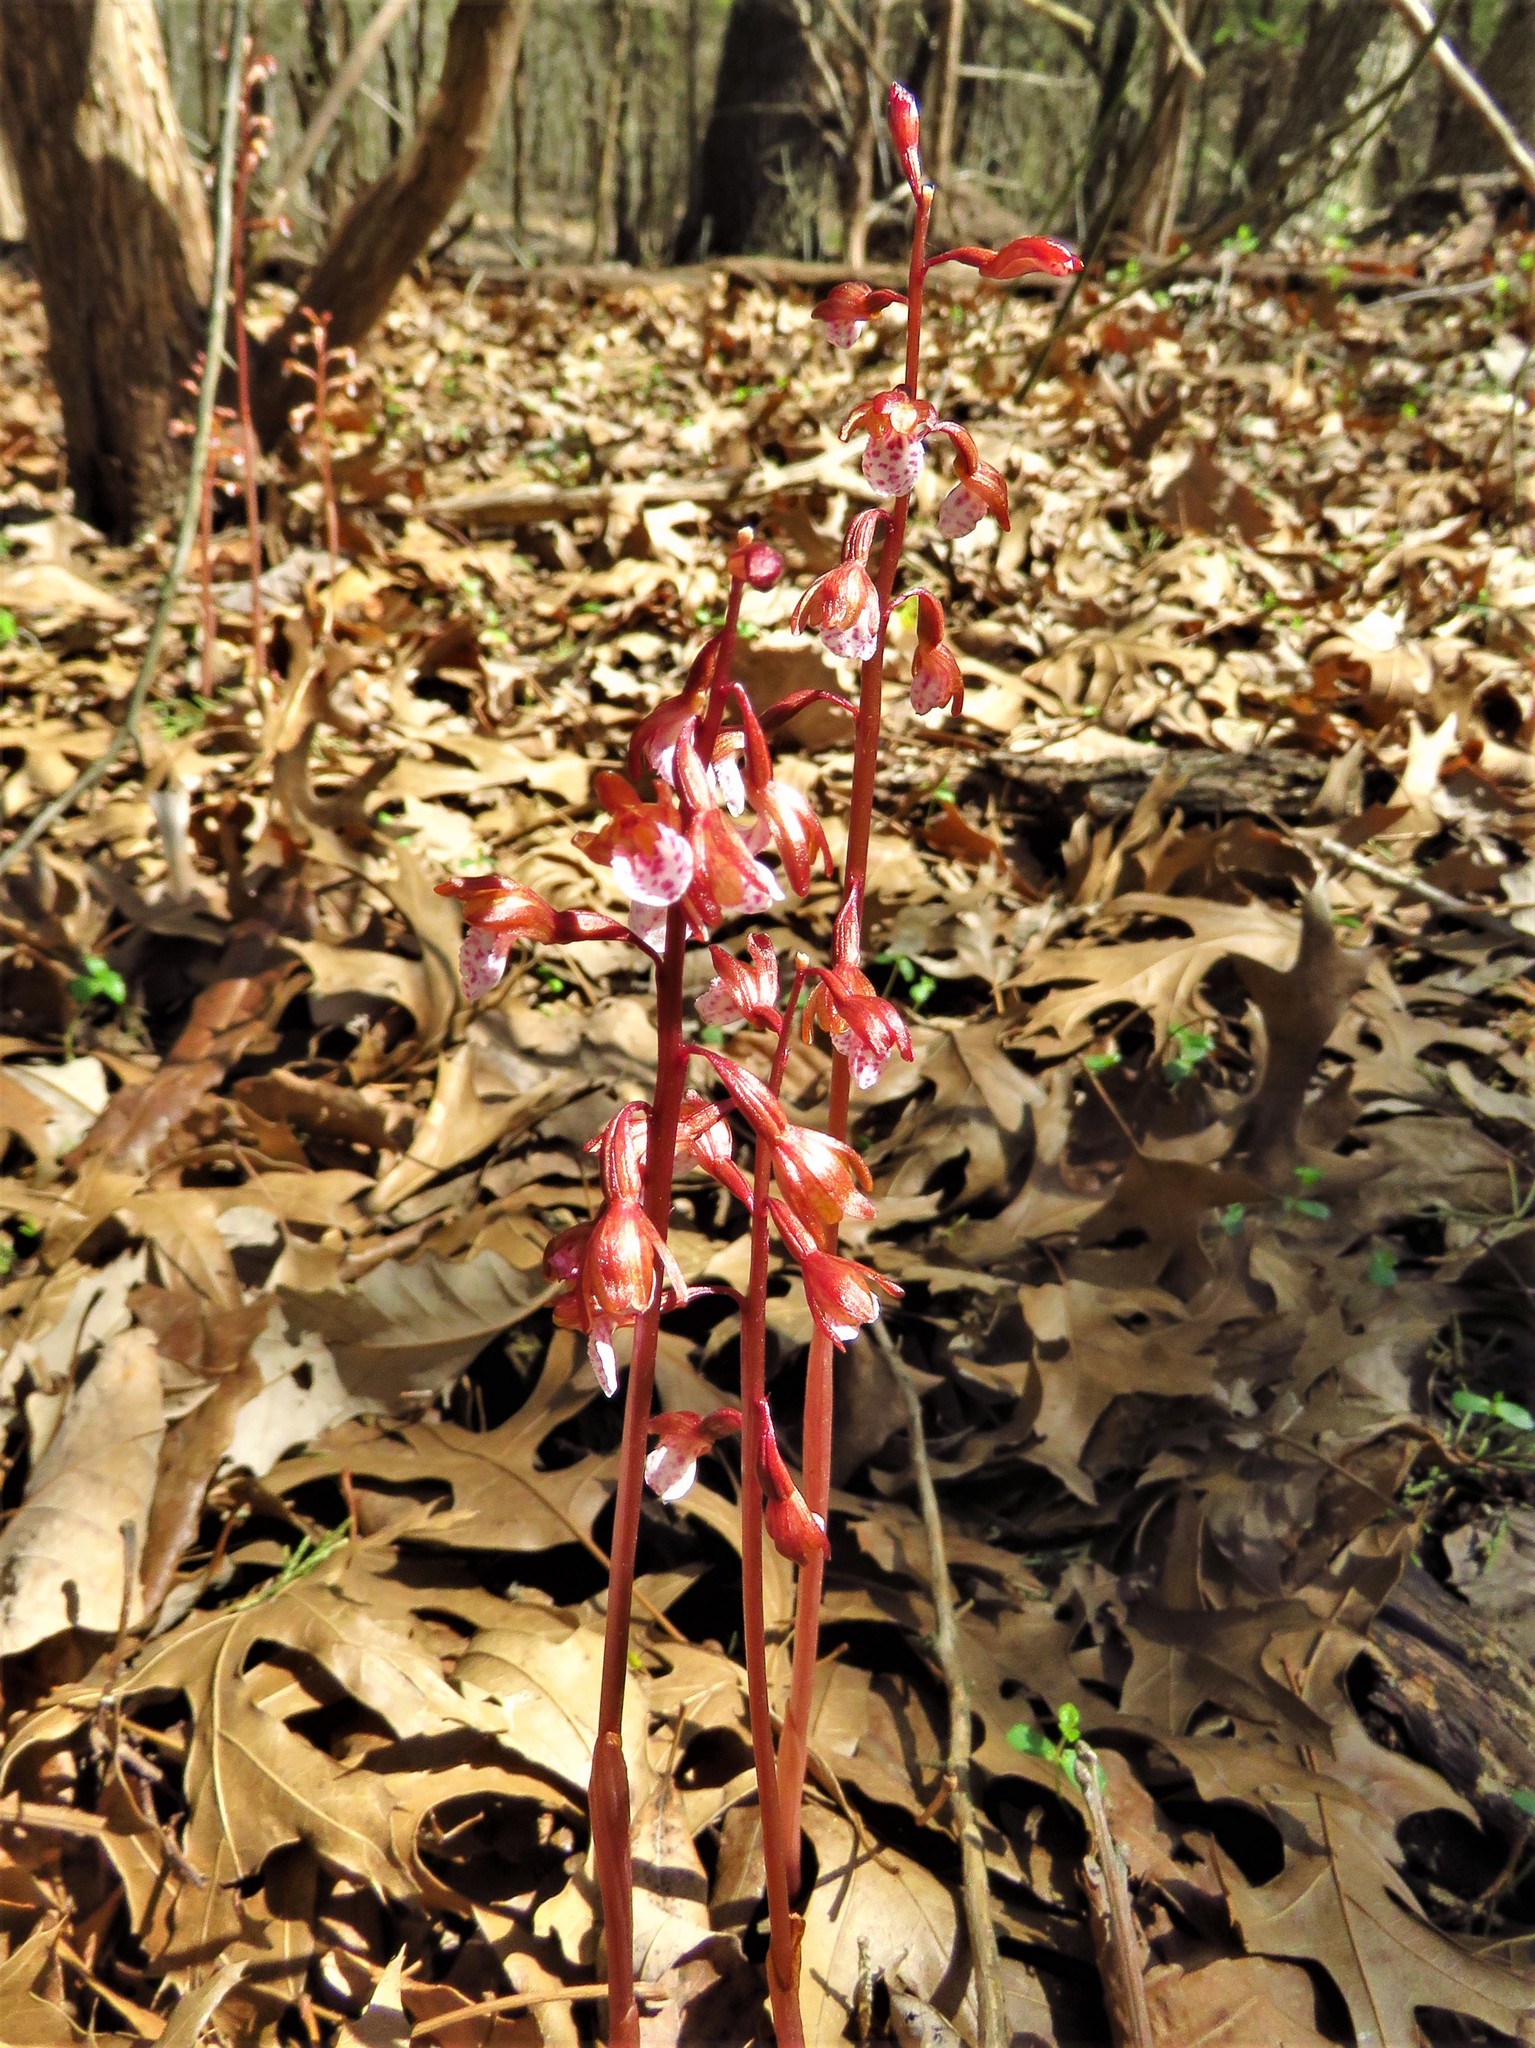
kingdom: Plantae
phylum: Tracheophyta
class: Liliopsida
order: Asparagales
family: Orchidaceae
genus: Corallorhiza
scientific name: Corallorhiza wisteriana
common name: Spring coralroot
